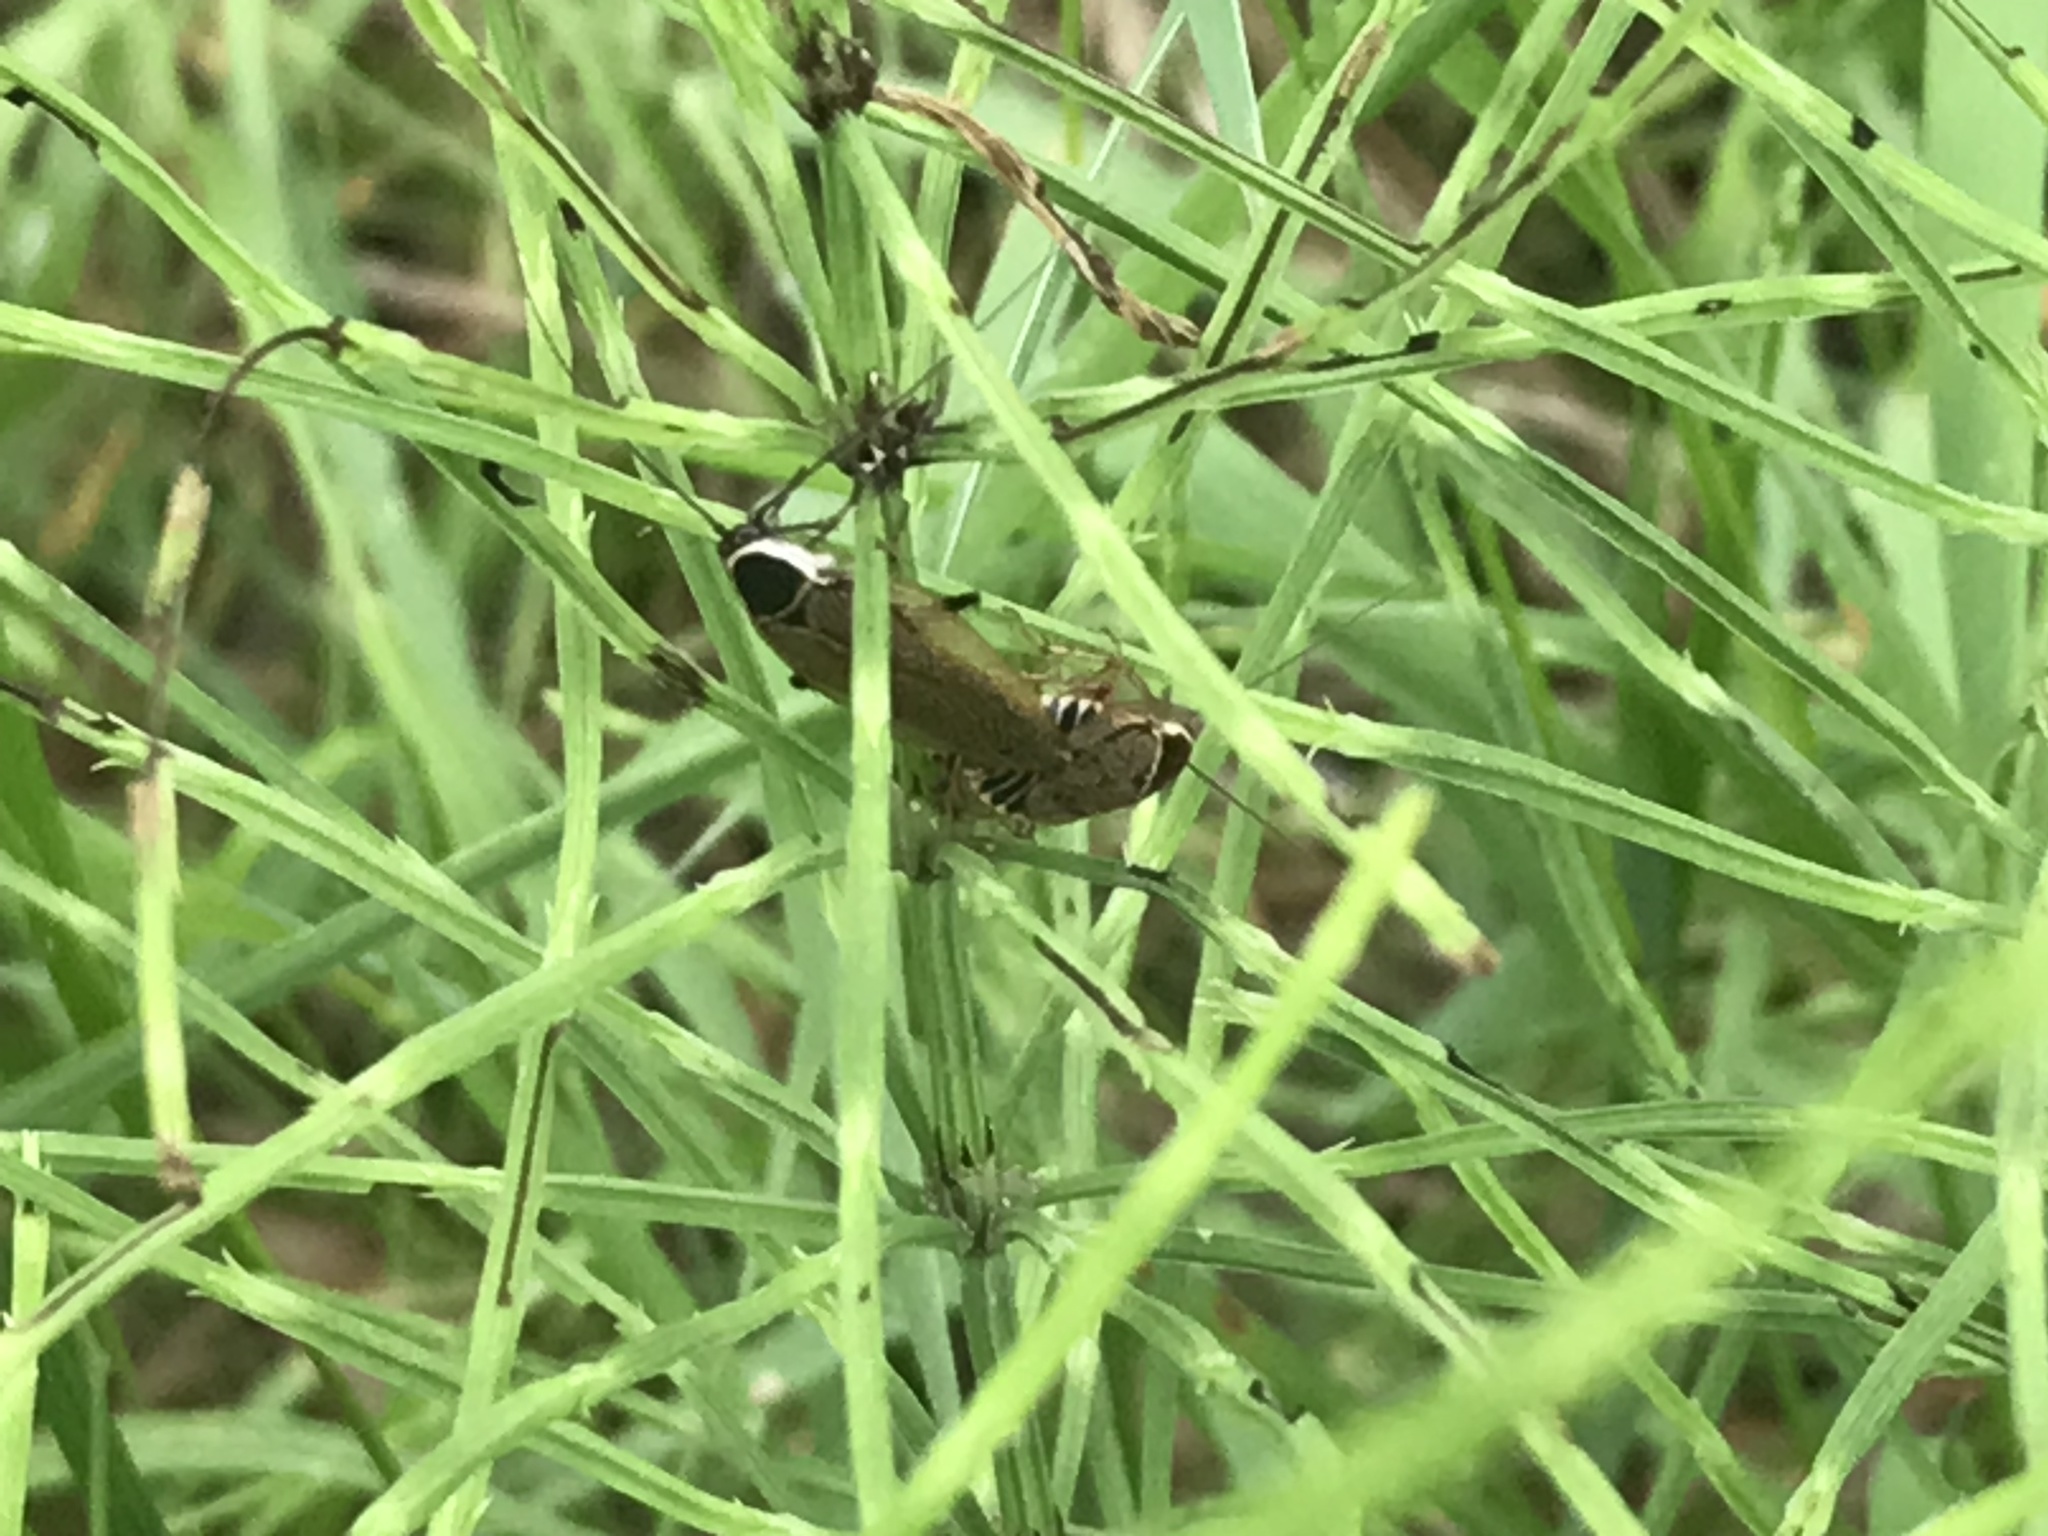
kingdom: Animalia
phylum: Arthropoda
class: Insecta
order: Blattodea
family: Ectobiidae
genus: Ectobius
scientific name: Ectobius sylvestris
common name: Forest cockroach
